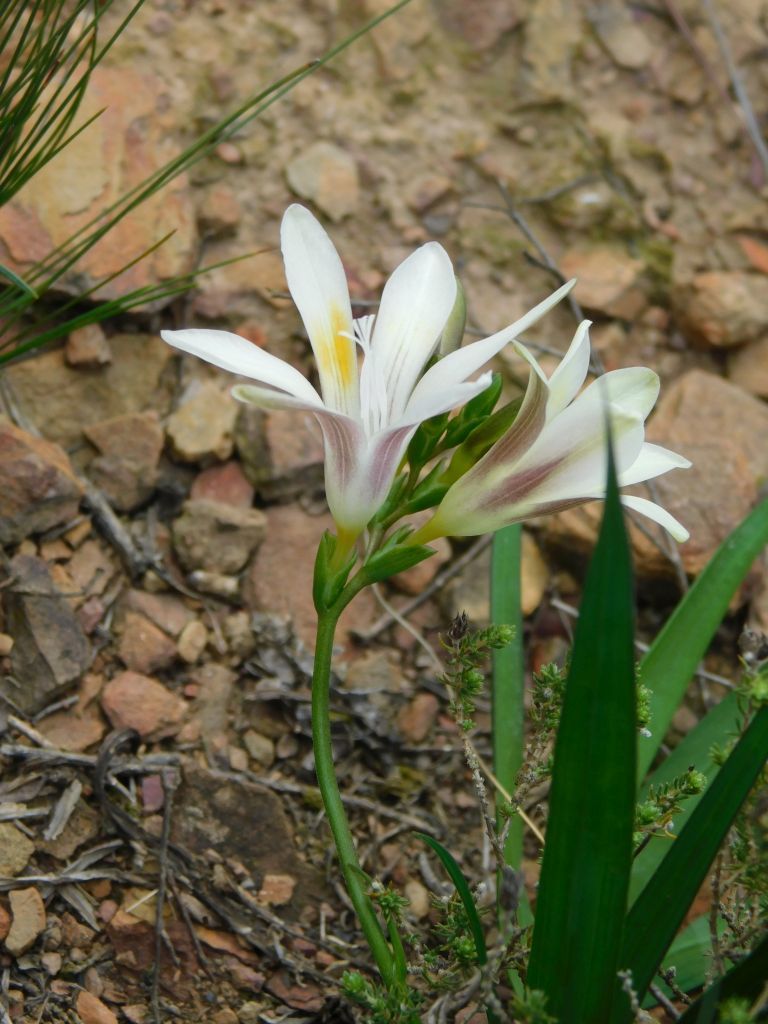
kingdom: Plantae
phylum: Tracheophyta
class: Liliopsida
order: Asparagales
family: Iridaceae
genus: Freesia
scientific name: Freesia caryophyllacea
